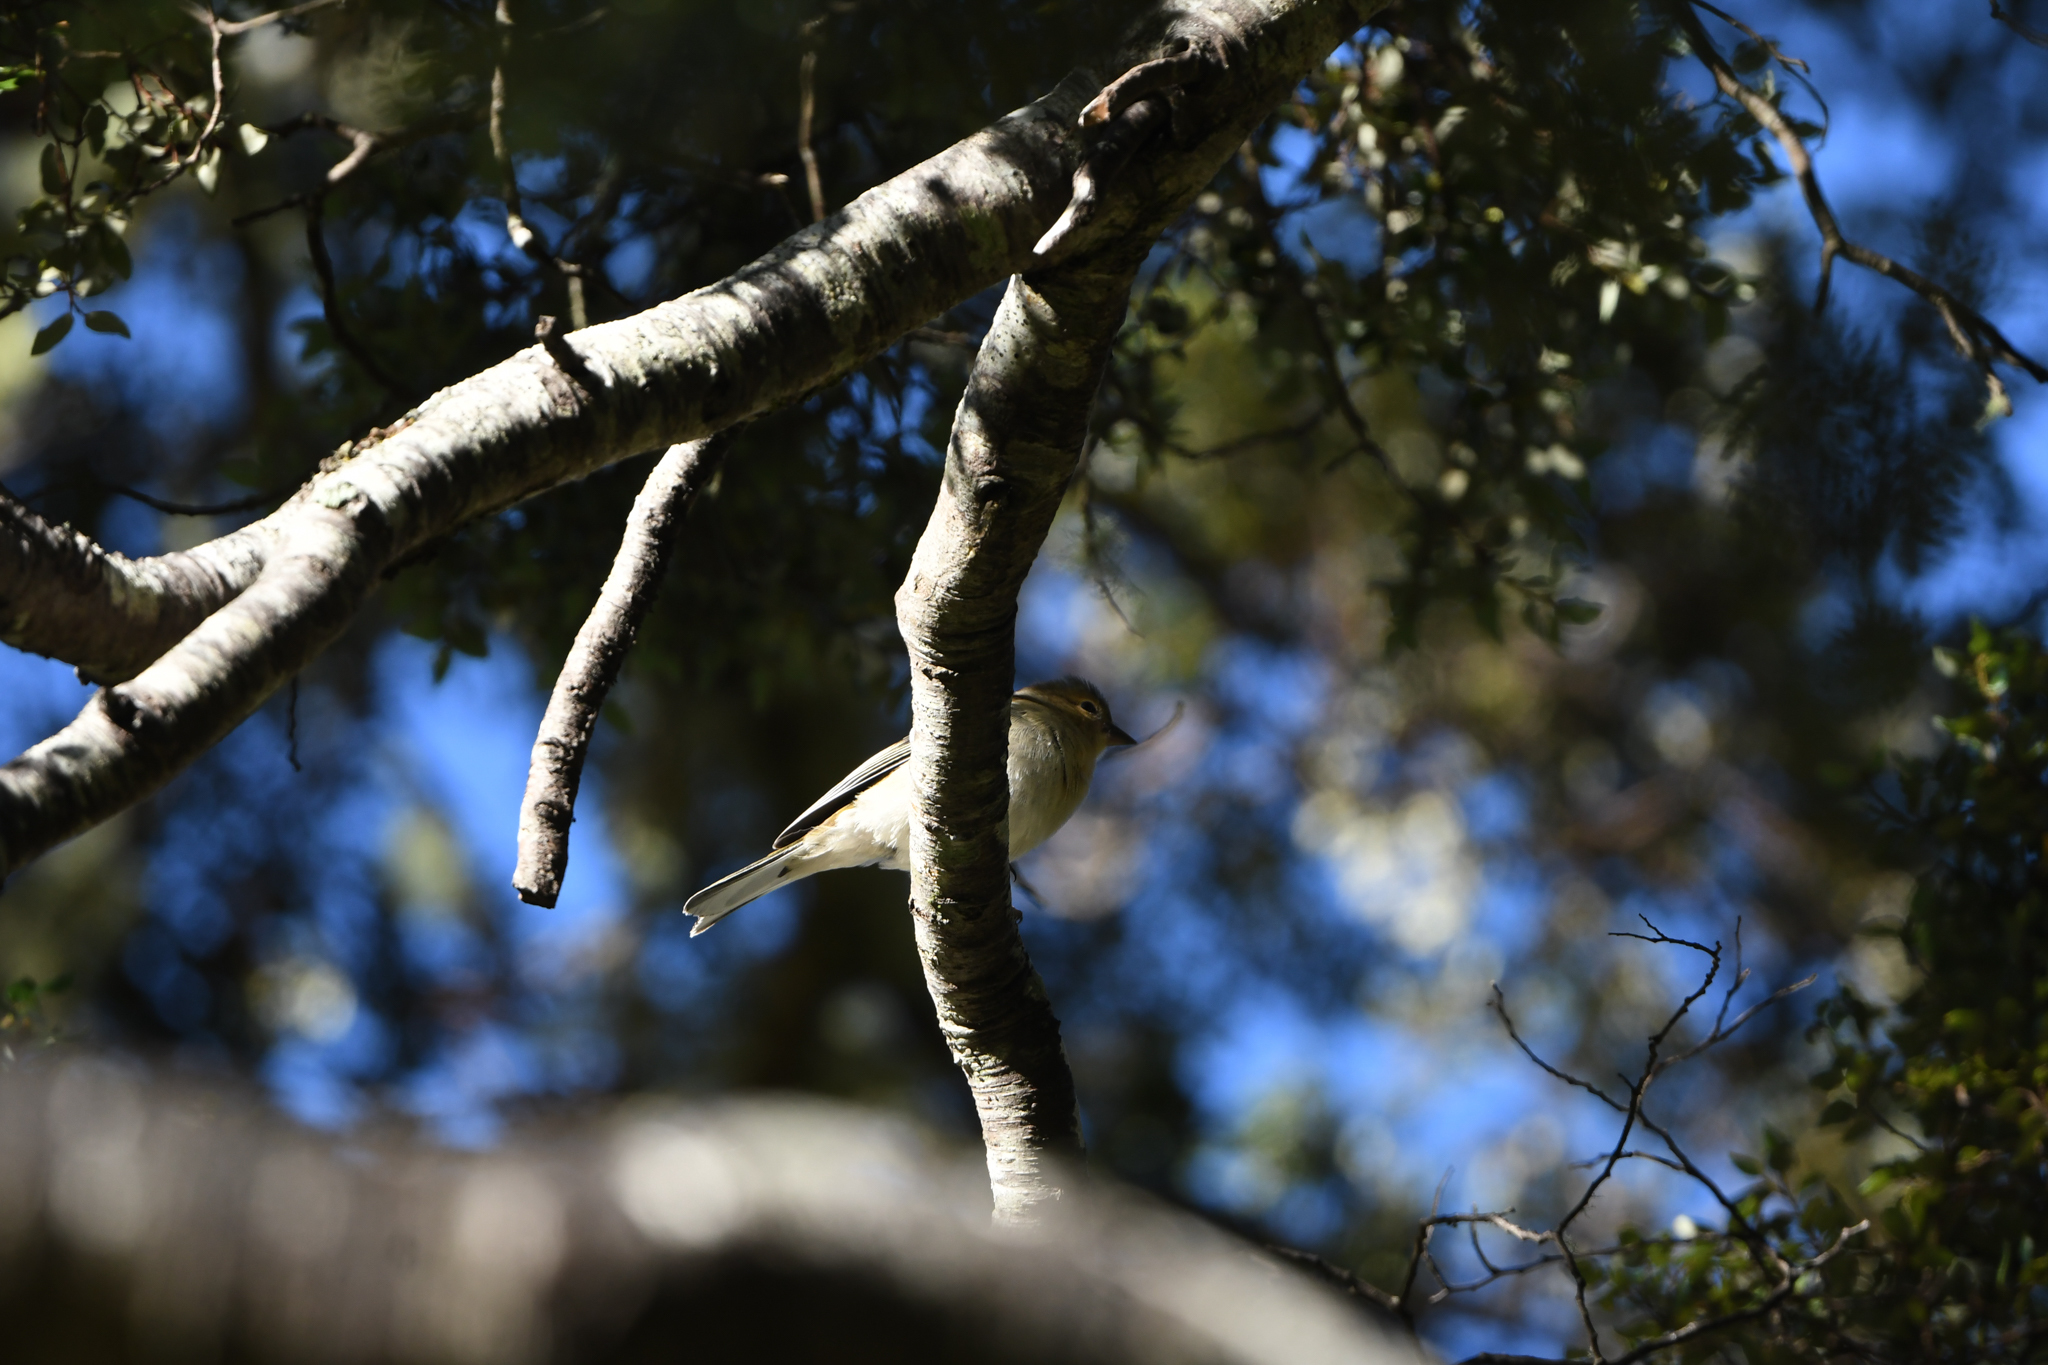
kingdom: Animalia
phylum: Chordata
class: Aves
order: Passeriformes
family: Fringillidae
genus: Fringilla
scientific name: Fringilla coelebs
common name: Common chaffinch
